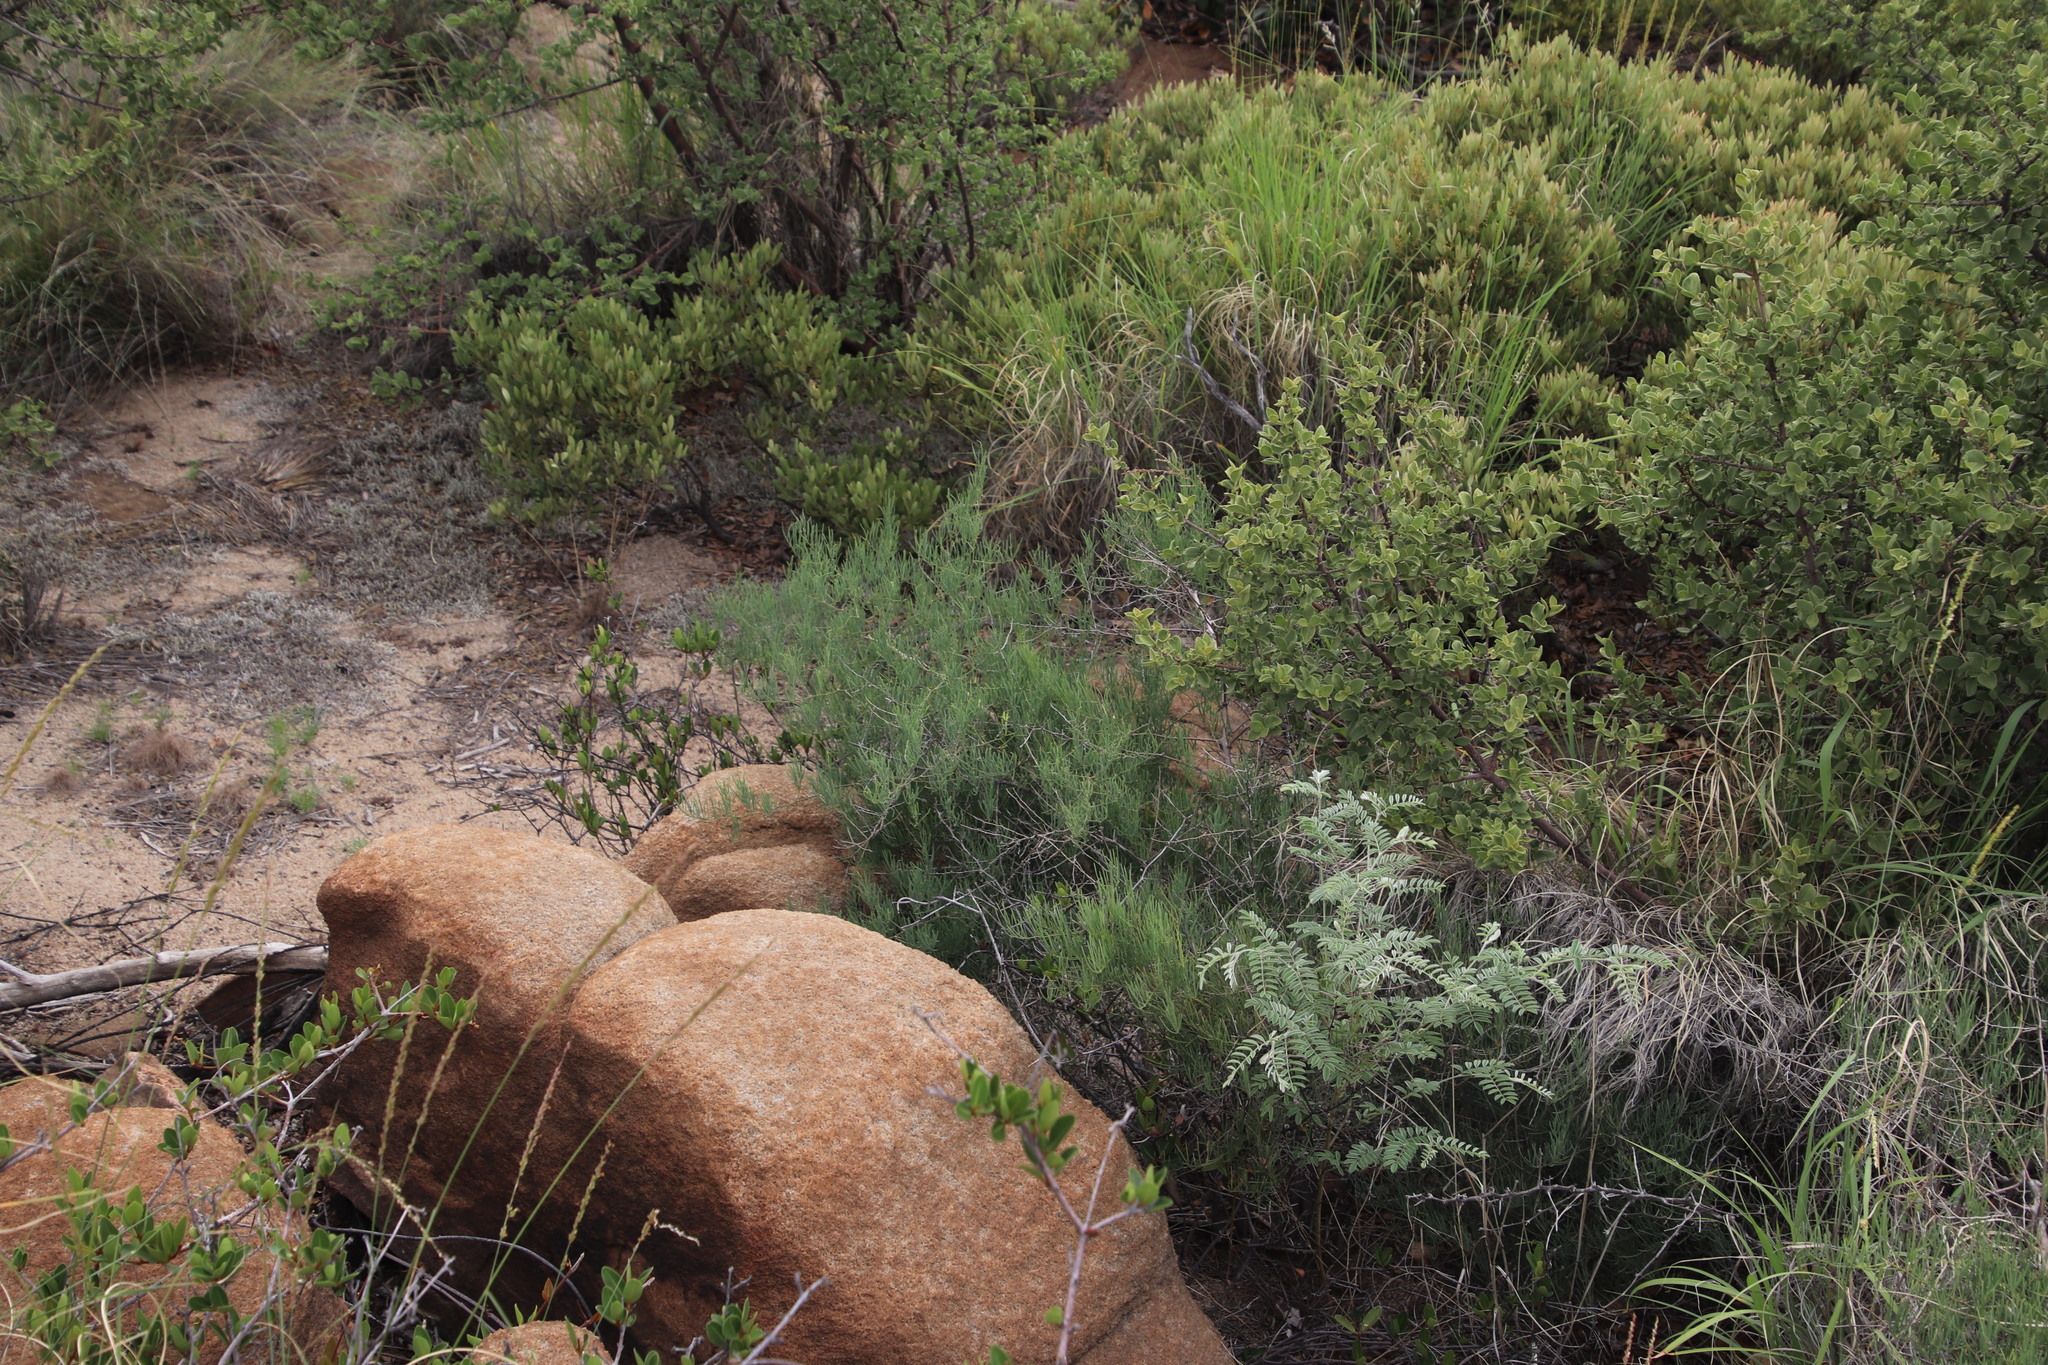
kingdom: Plantae
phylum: Tracheophyta
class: Liliopsida
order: Asparagales
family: Asparagaceae
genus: Asparagus
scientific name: Asparagus transvaalensis
